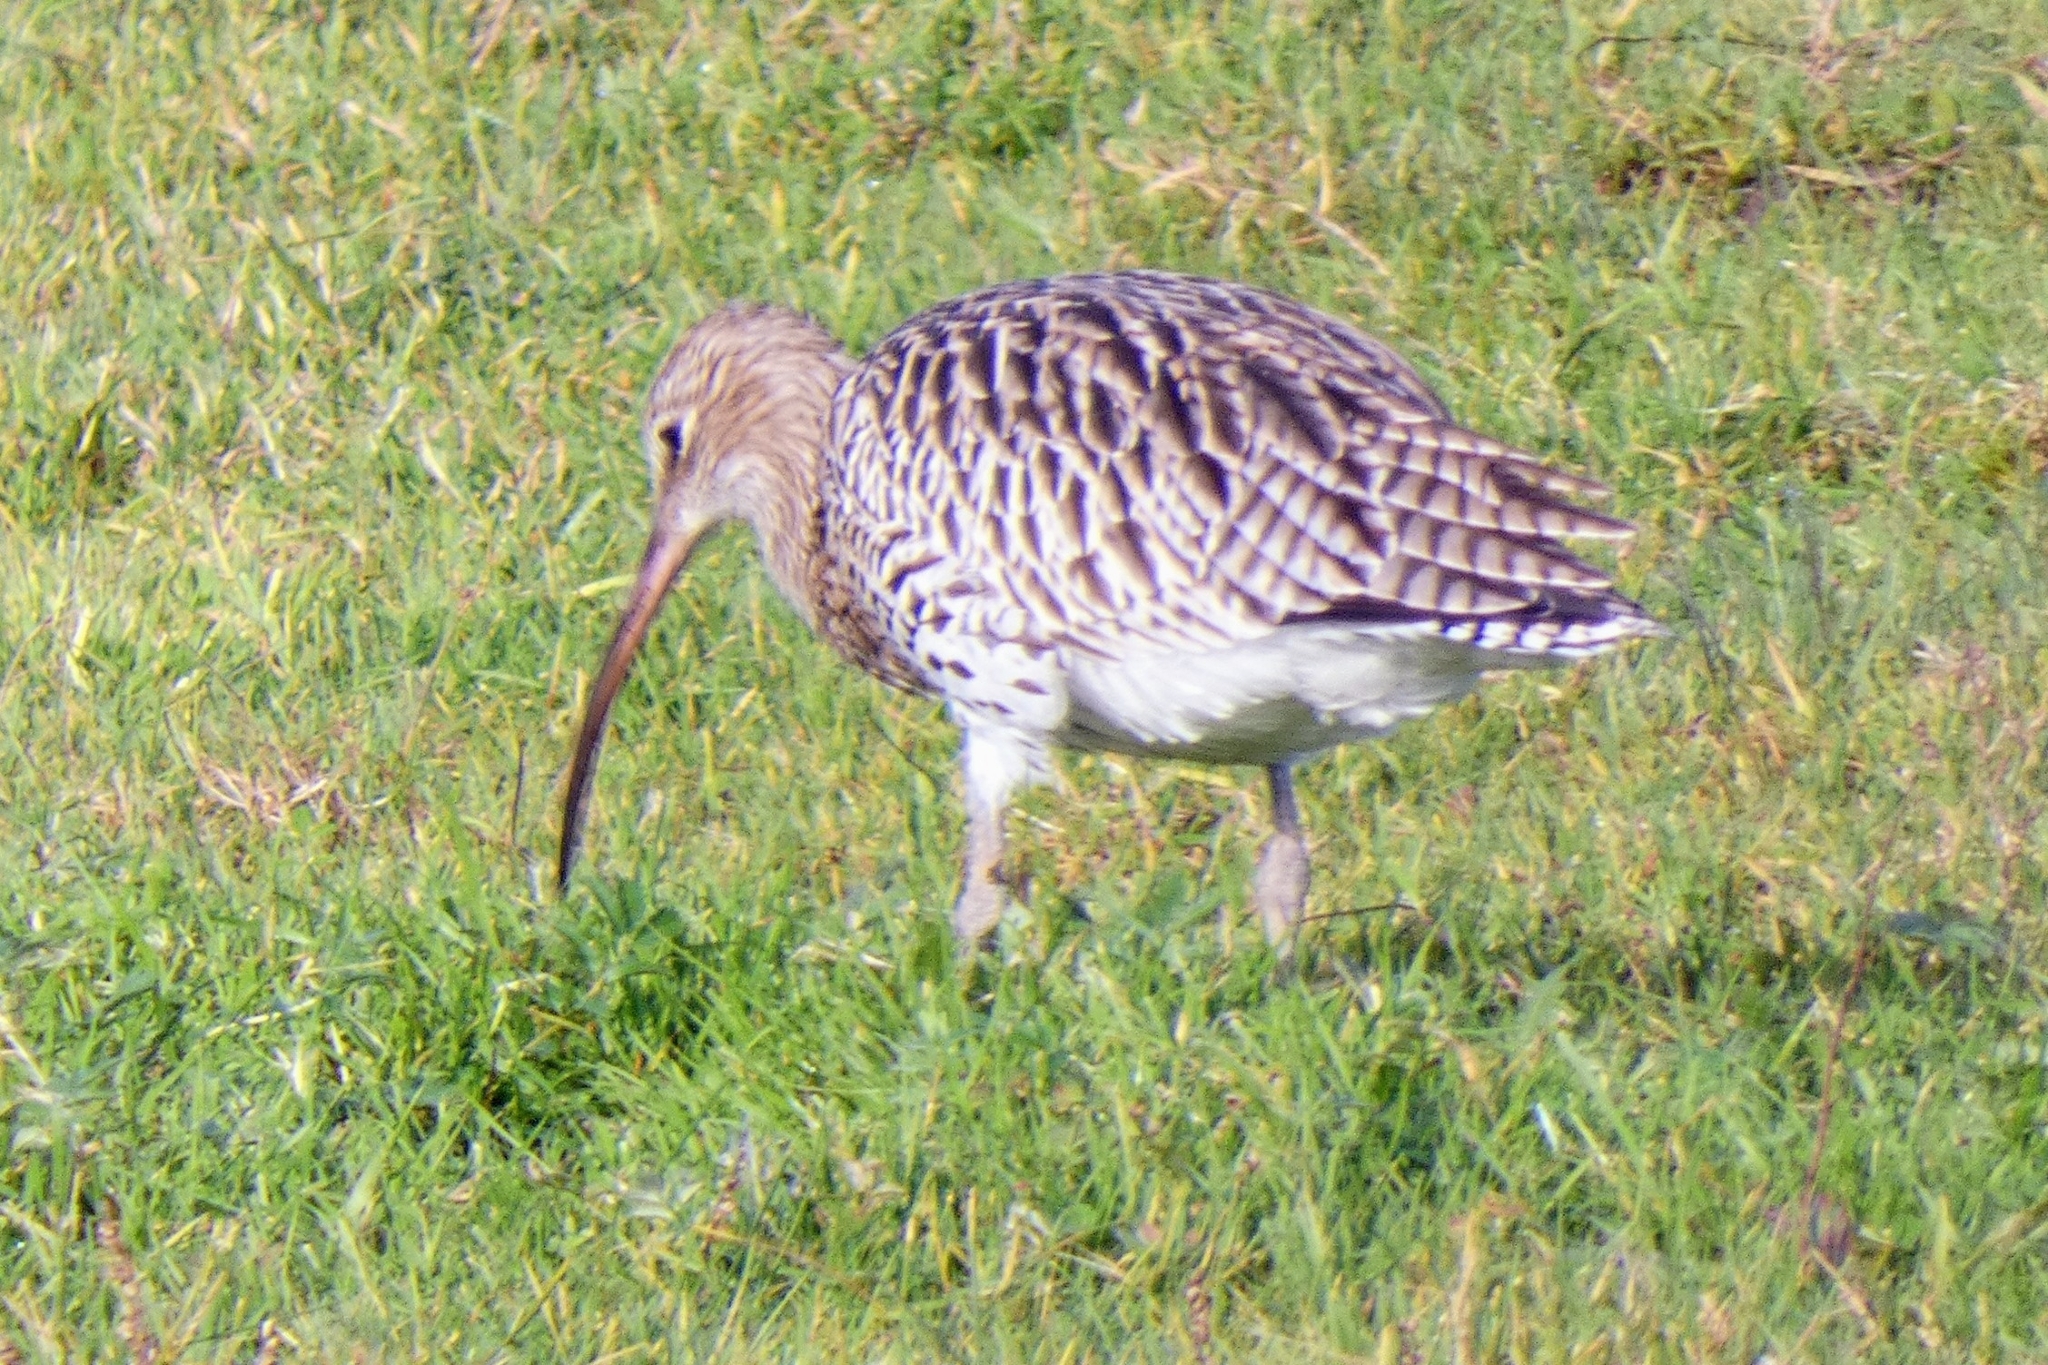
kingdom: Animalia
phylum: Chordata
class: Aves
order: Charadriiformes
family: Scolopacidae
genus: Numenius
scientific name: Numenius arquata
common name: Eurasian curlew
